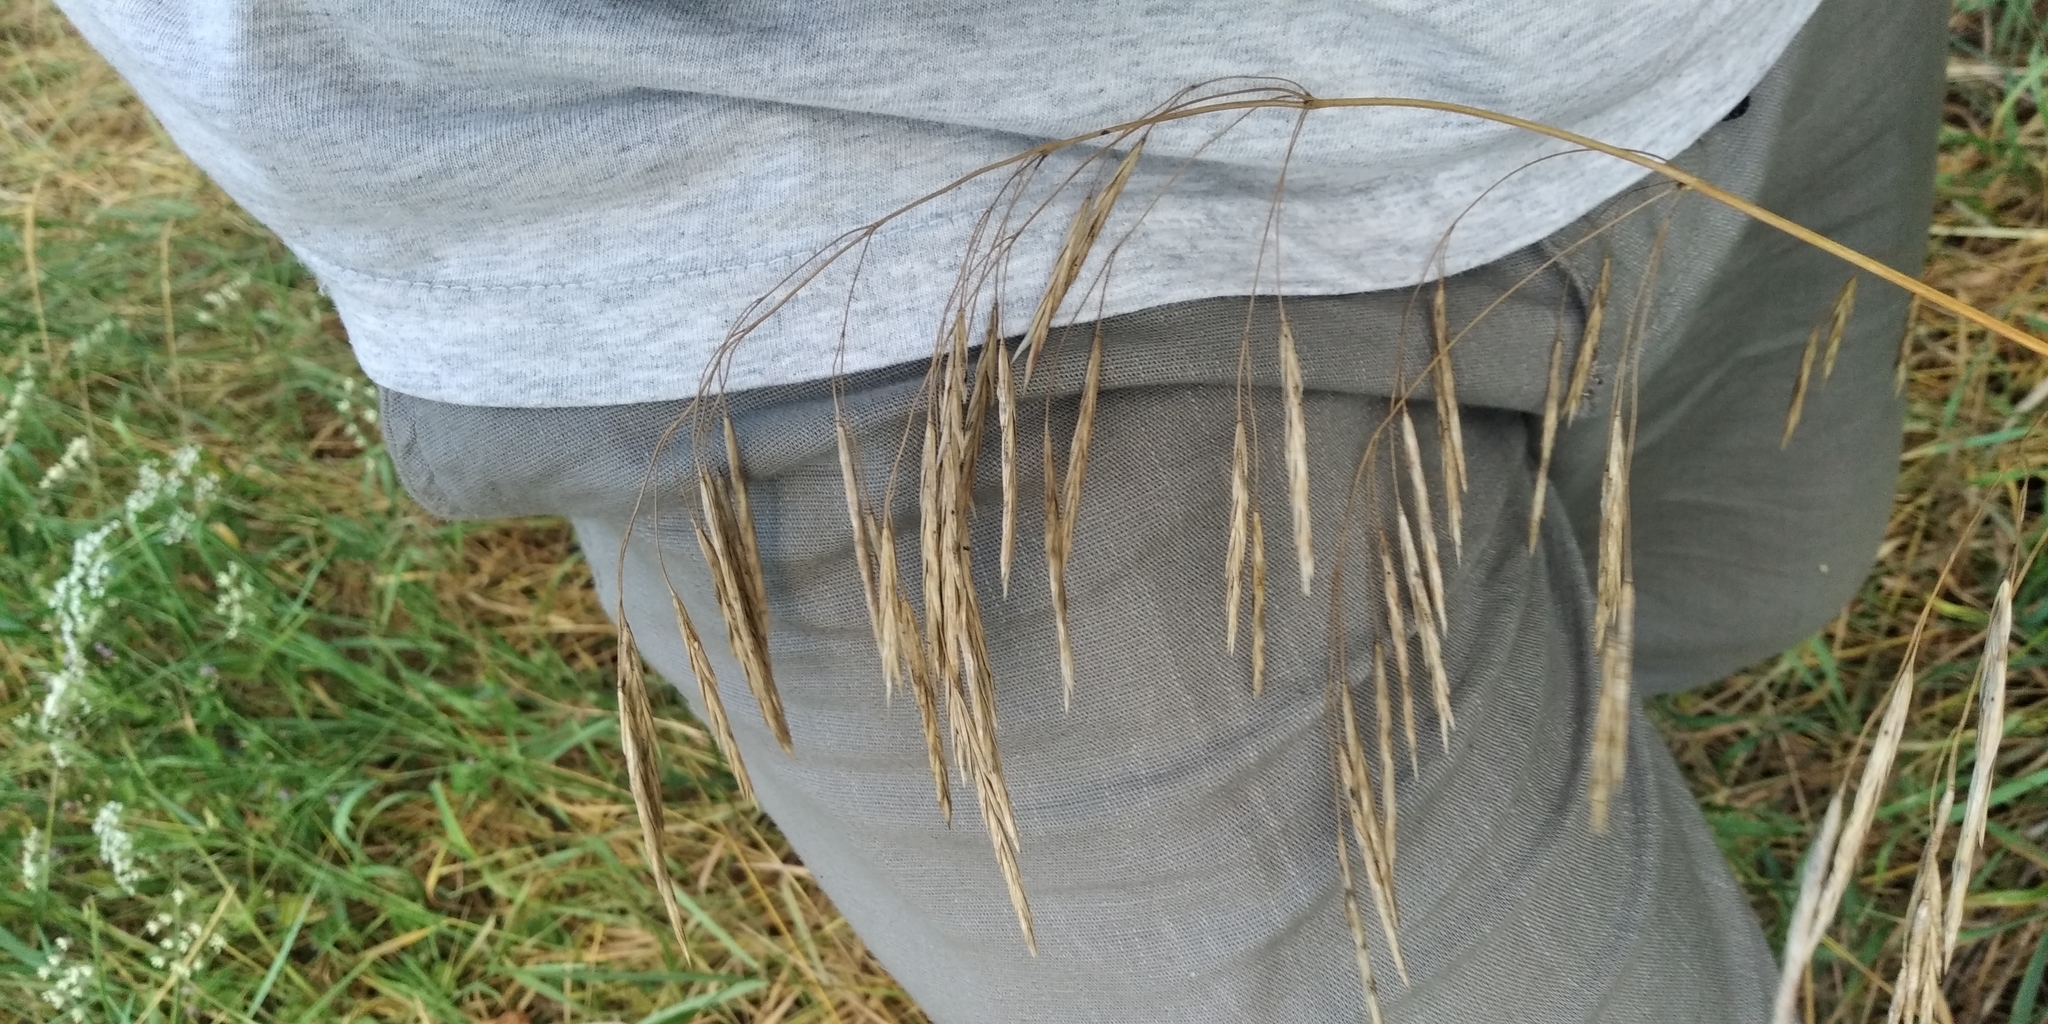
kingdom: Plantae
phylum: Tracheophyta
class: Liliopsida
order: Poales
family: Poaceae
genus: Bromus
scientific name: Bromus inermis
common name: Smooth brome
